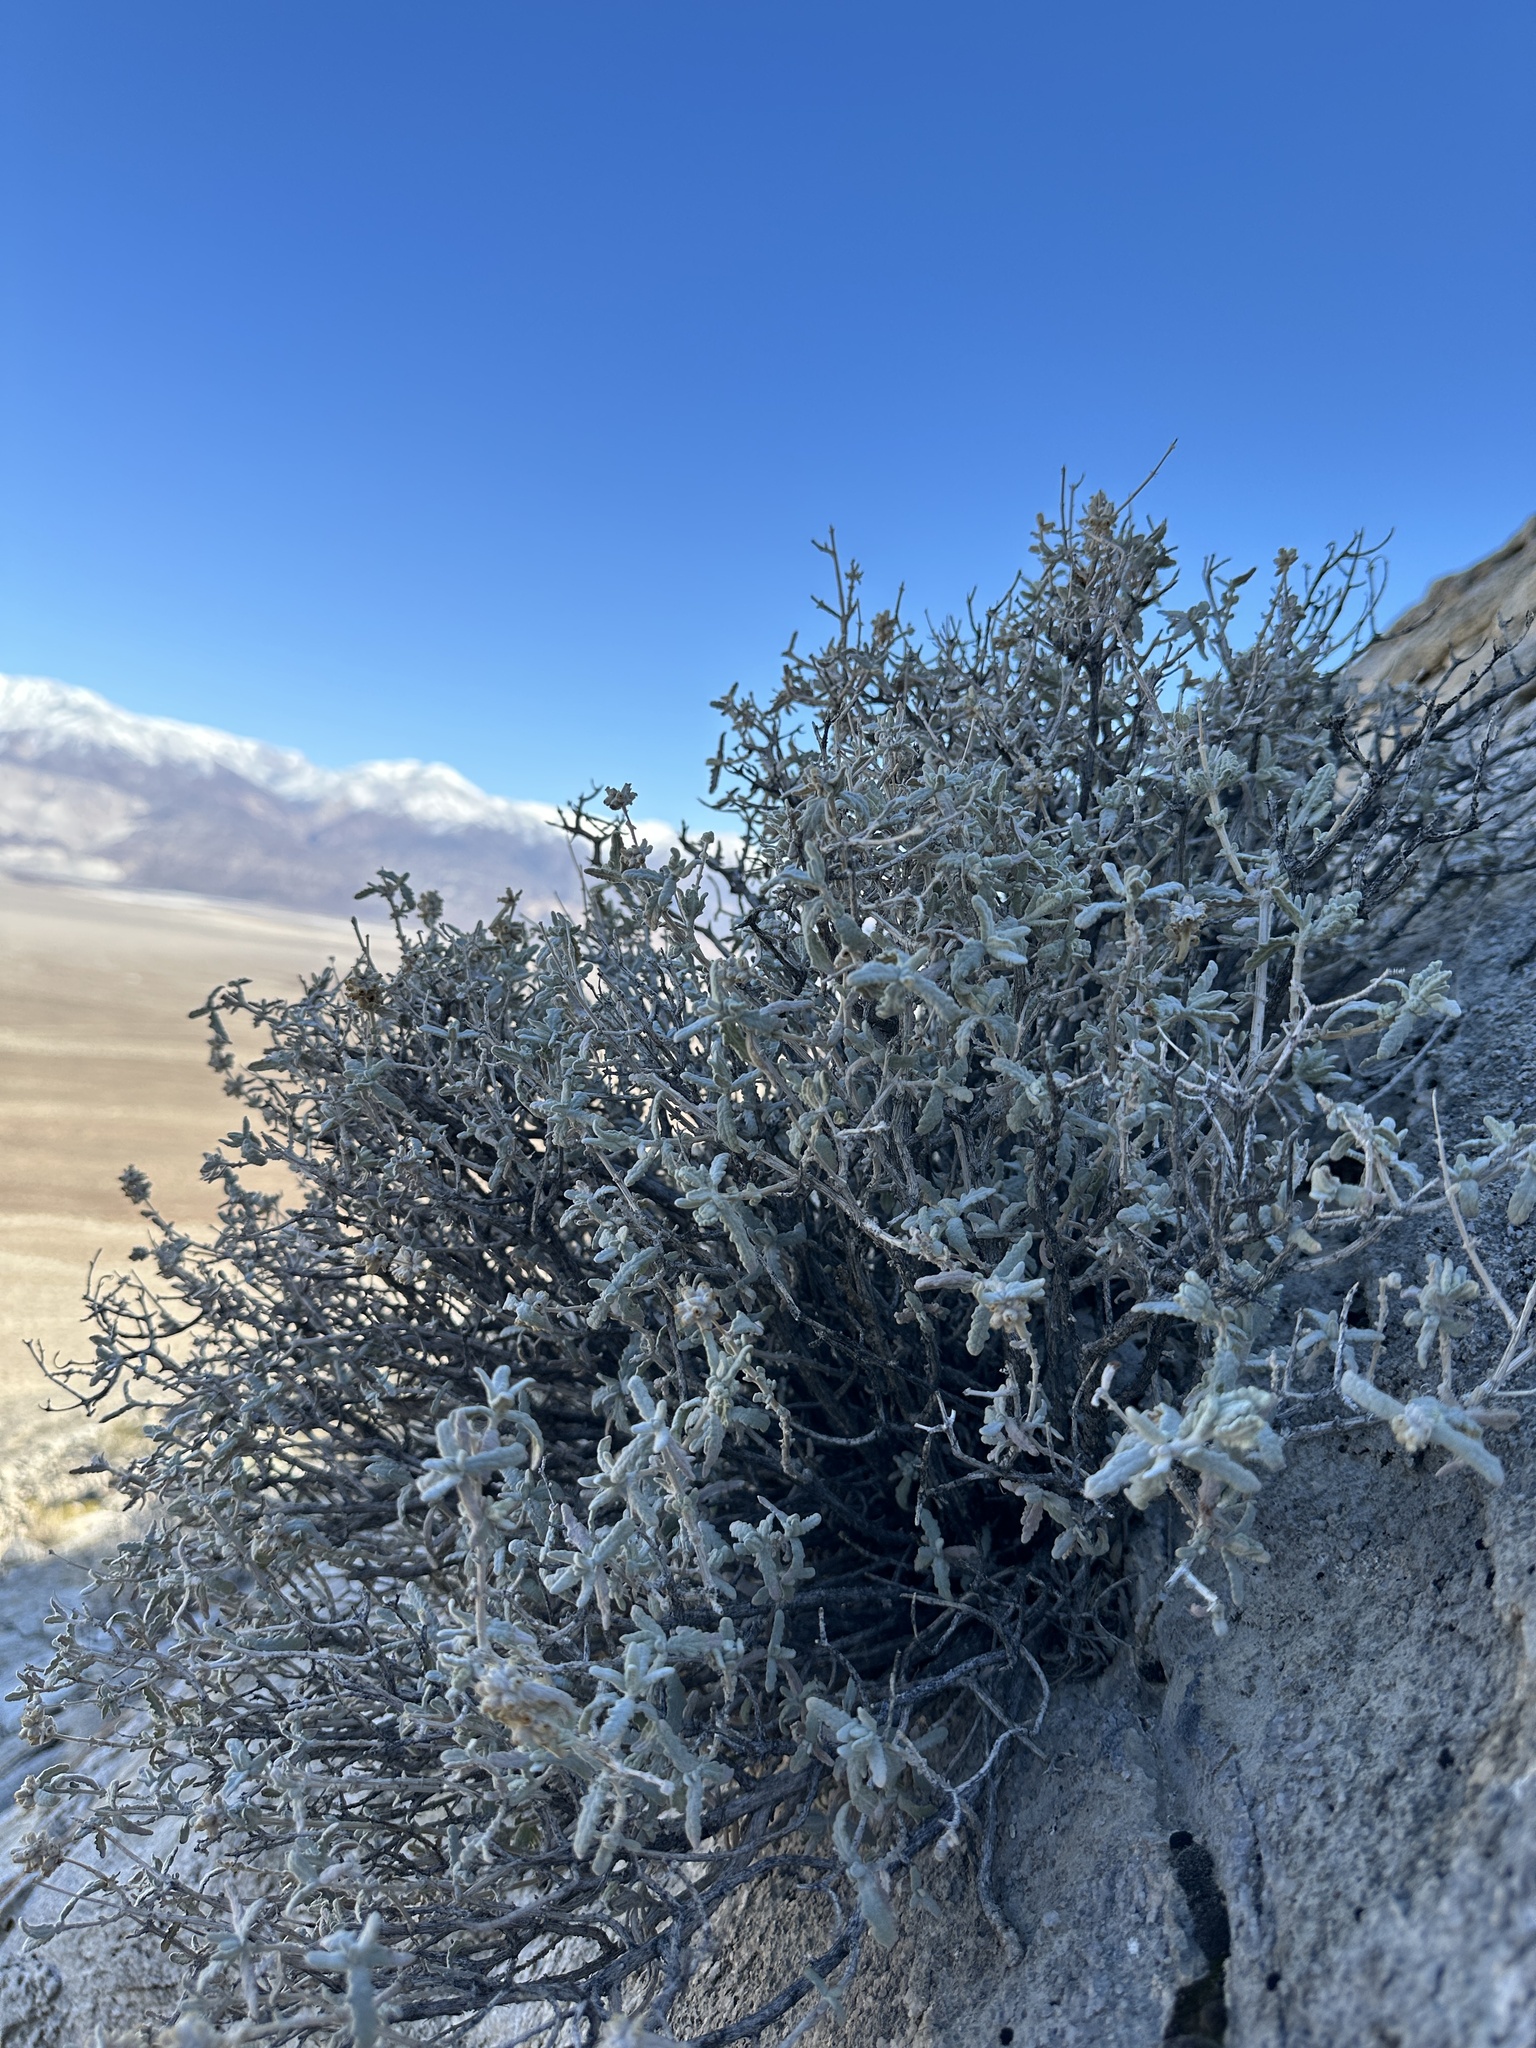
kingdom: Plantae
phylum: Tracheophyta
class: Magnoliopsida
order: Lamiales
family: Scrophulariaceae
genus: Buddleja
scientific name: Buddleja utahensis
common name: Utah butterfly-bush
